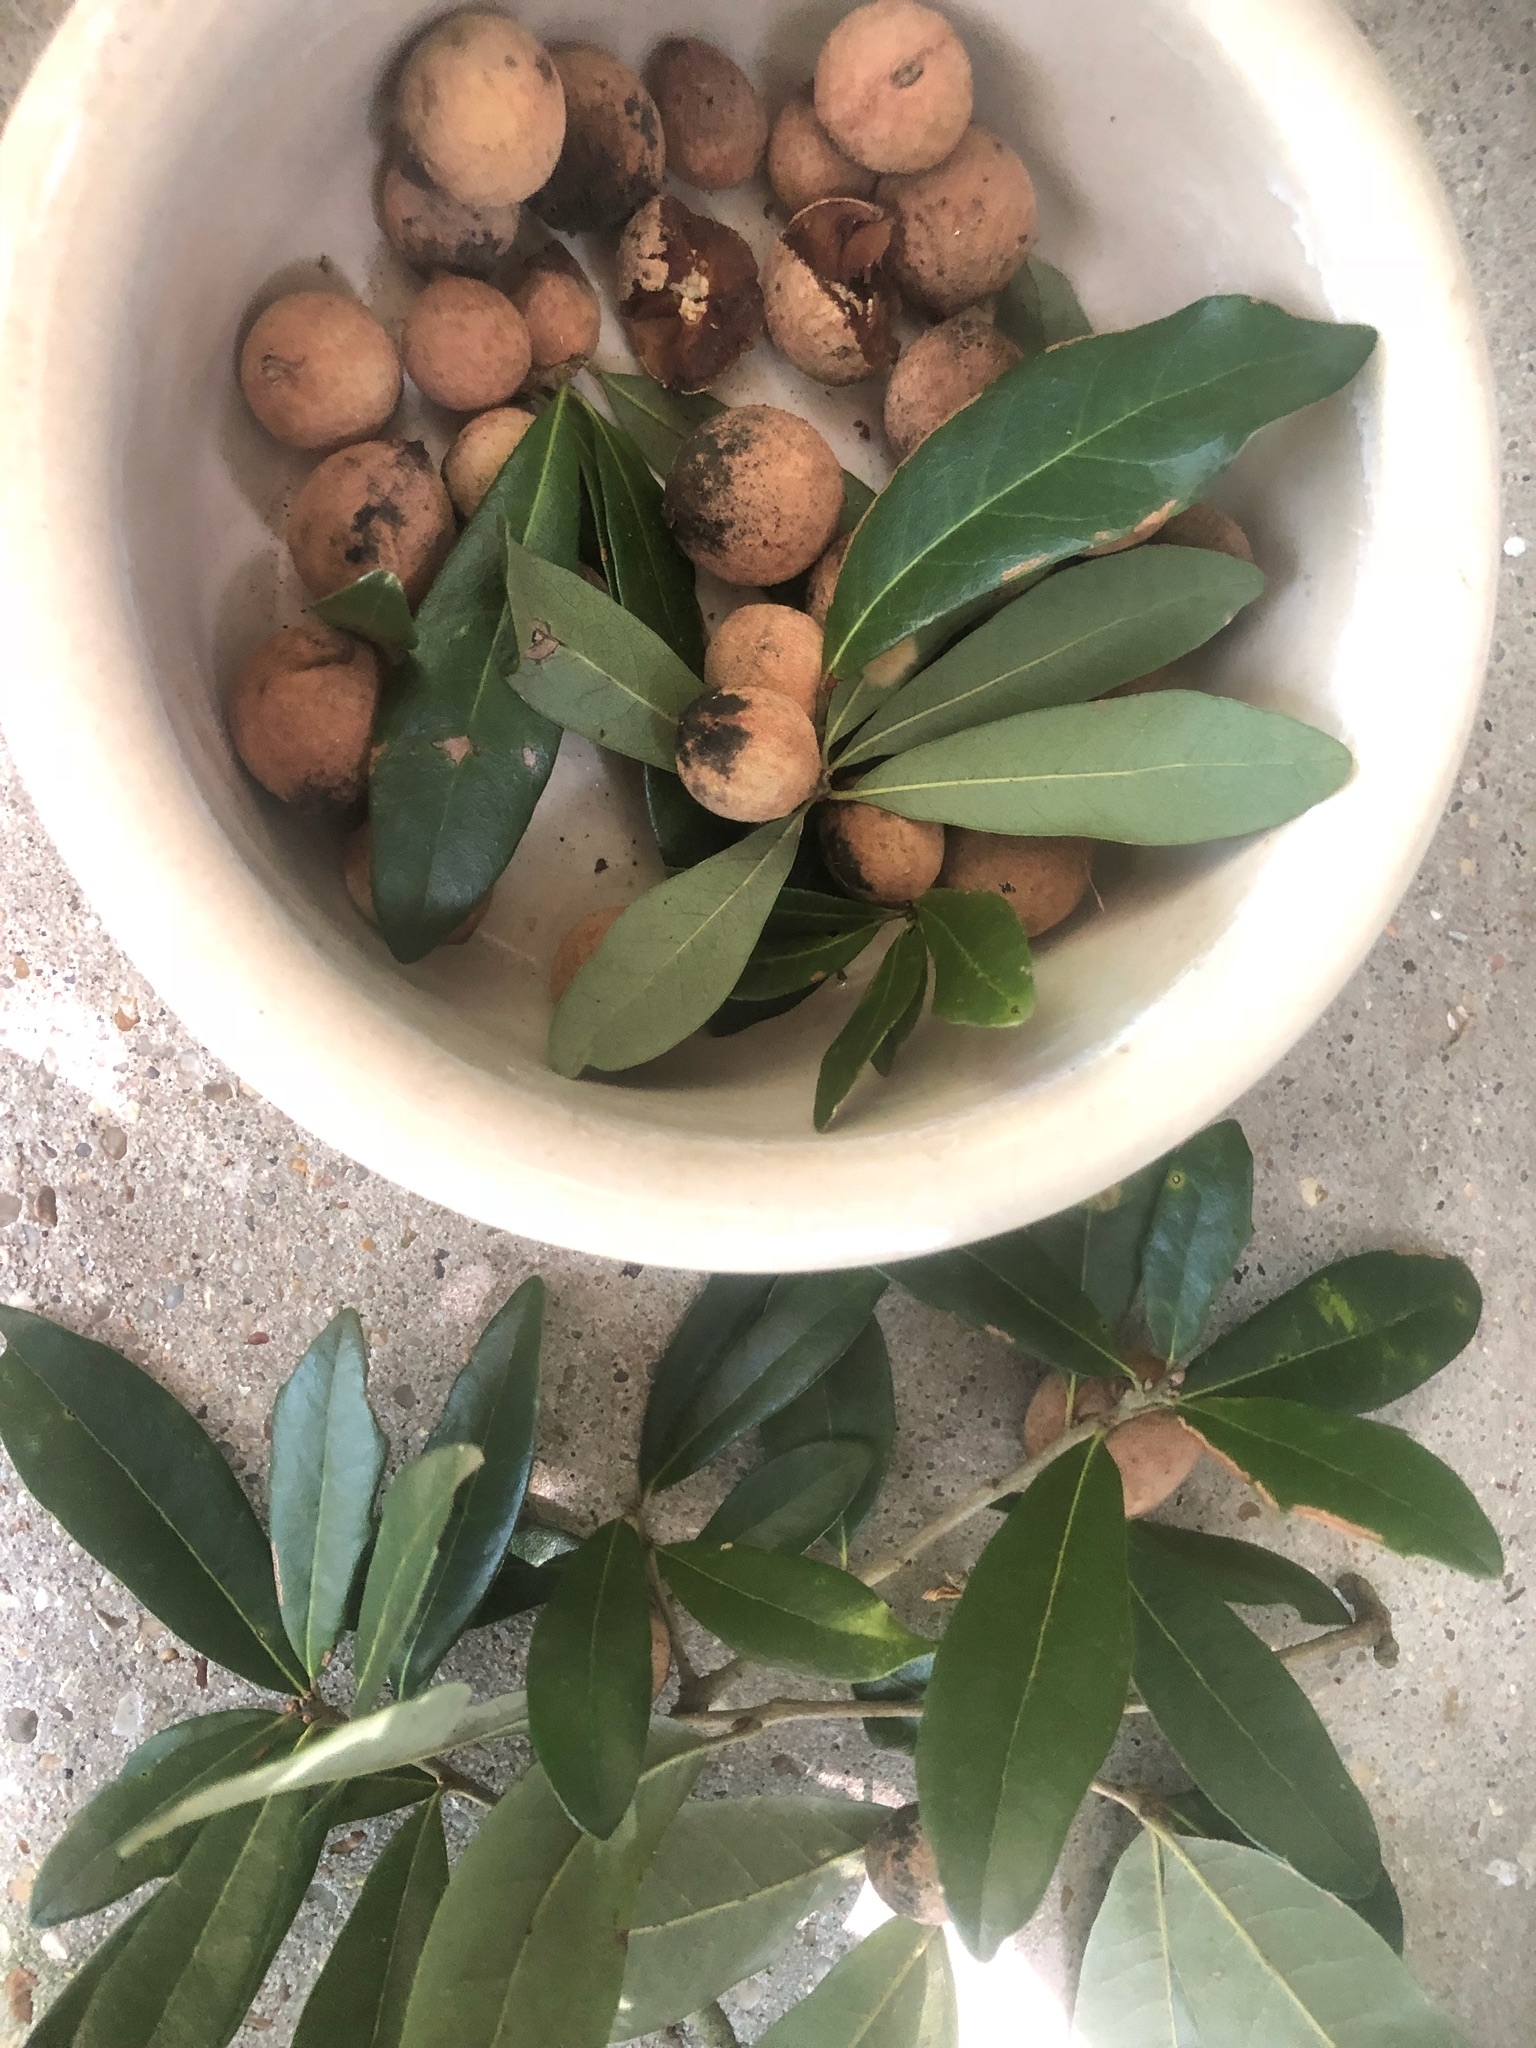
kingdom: Animalia
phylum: Arthropoda
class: Insecta
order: Hymenoptera
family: Cynipidae
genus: Disholcaspis
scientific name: Disholcaspis
